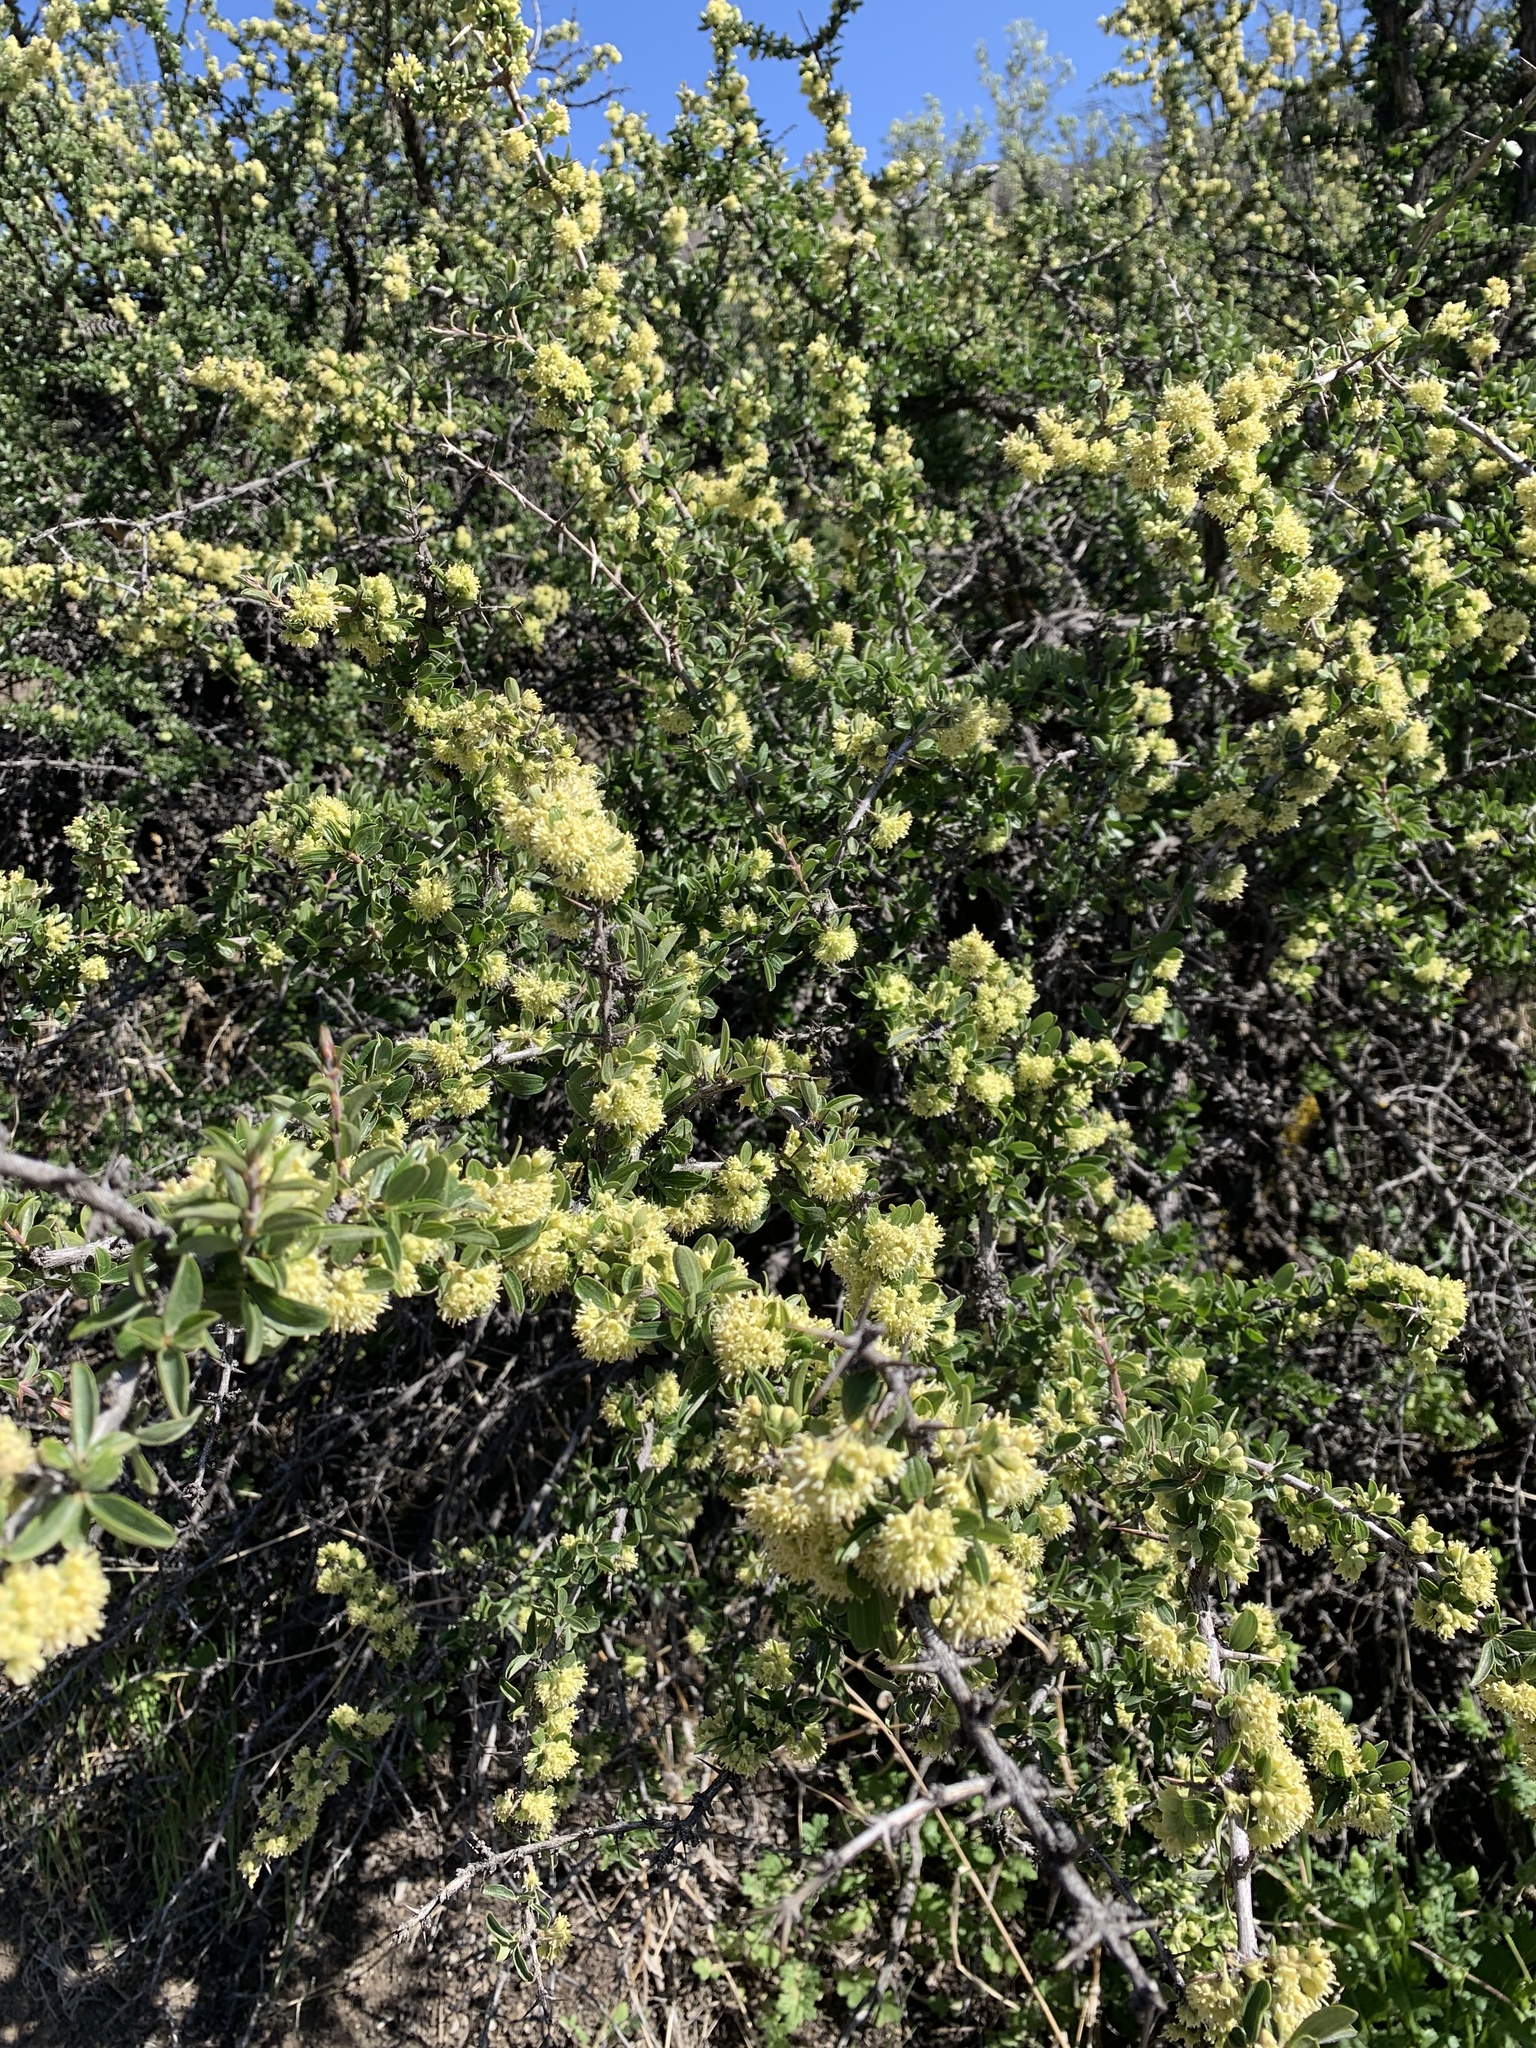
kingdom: Plantae
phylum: Tracheophyta
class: Magnoliopsida
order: Rosales
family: Rhamnaceae
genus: Trevoa
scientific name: Trevoa quinquenervia
